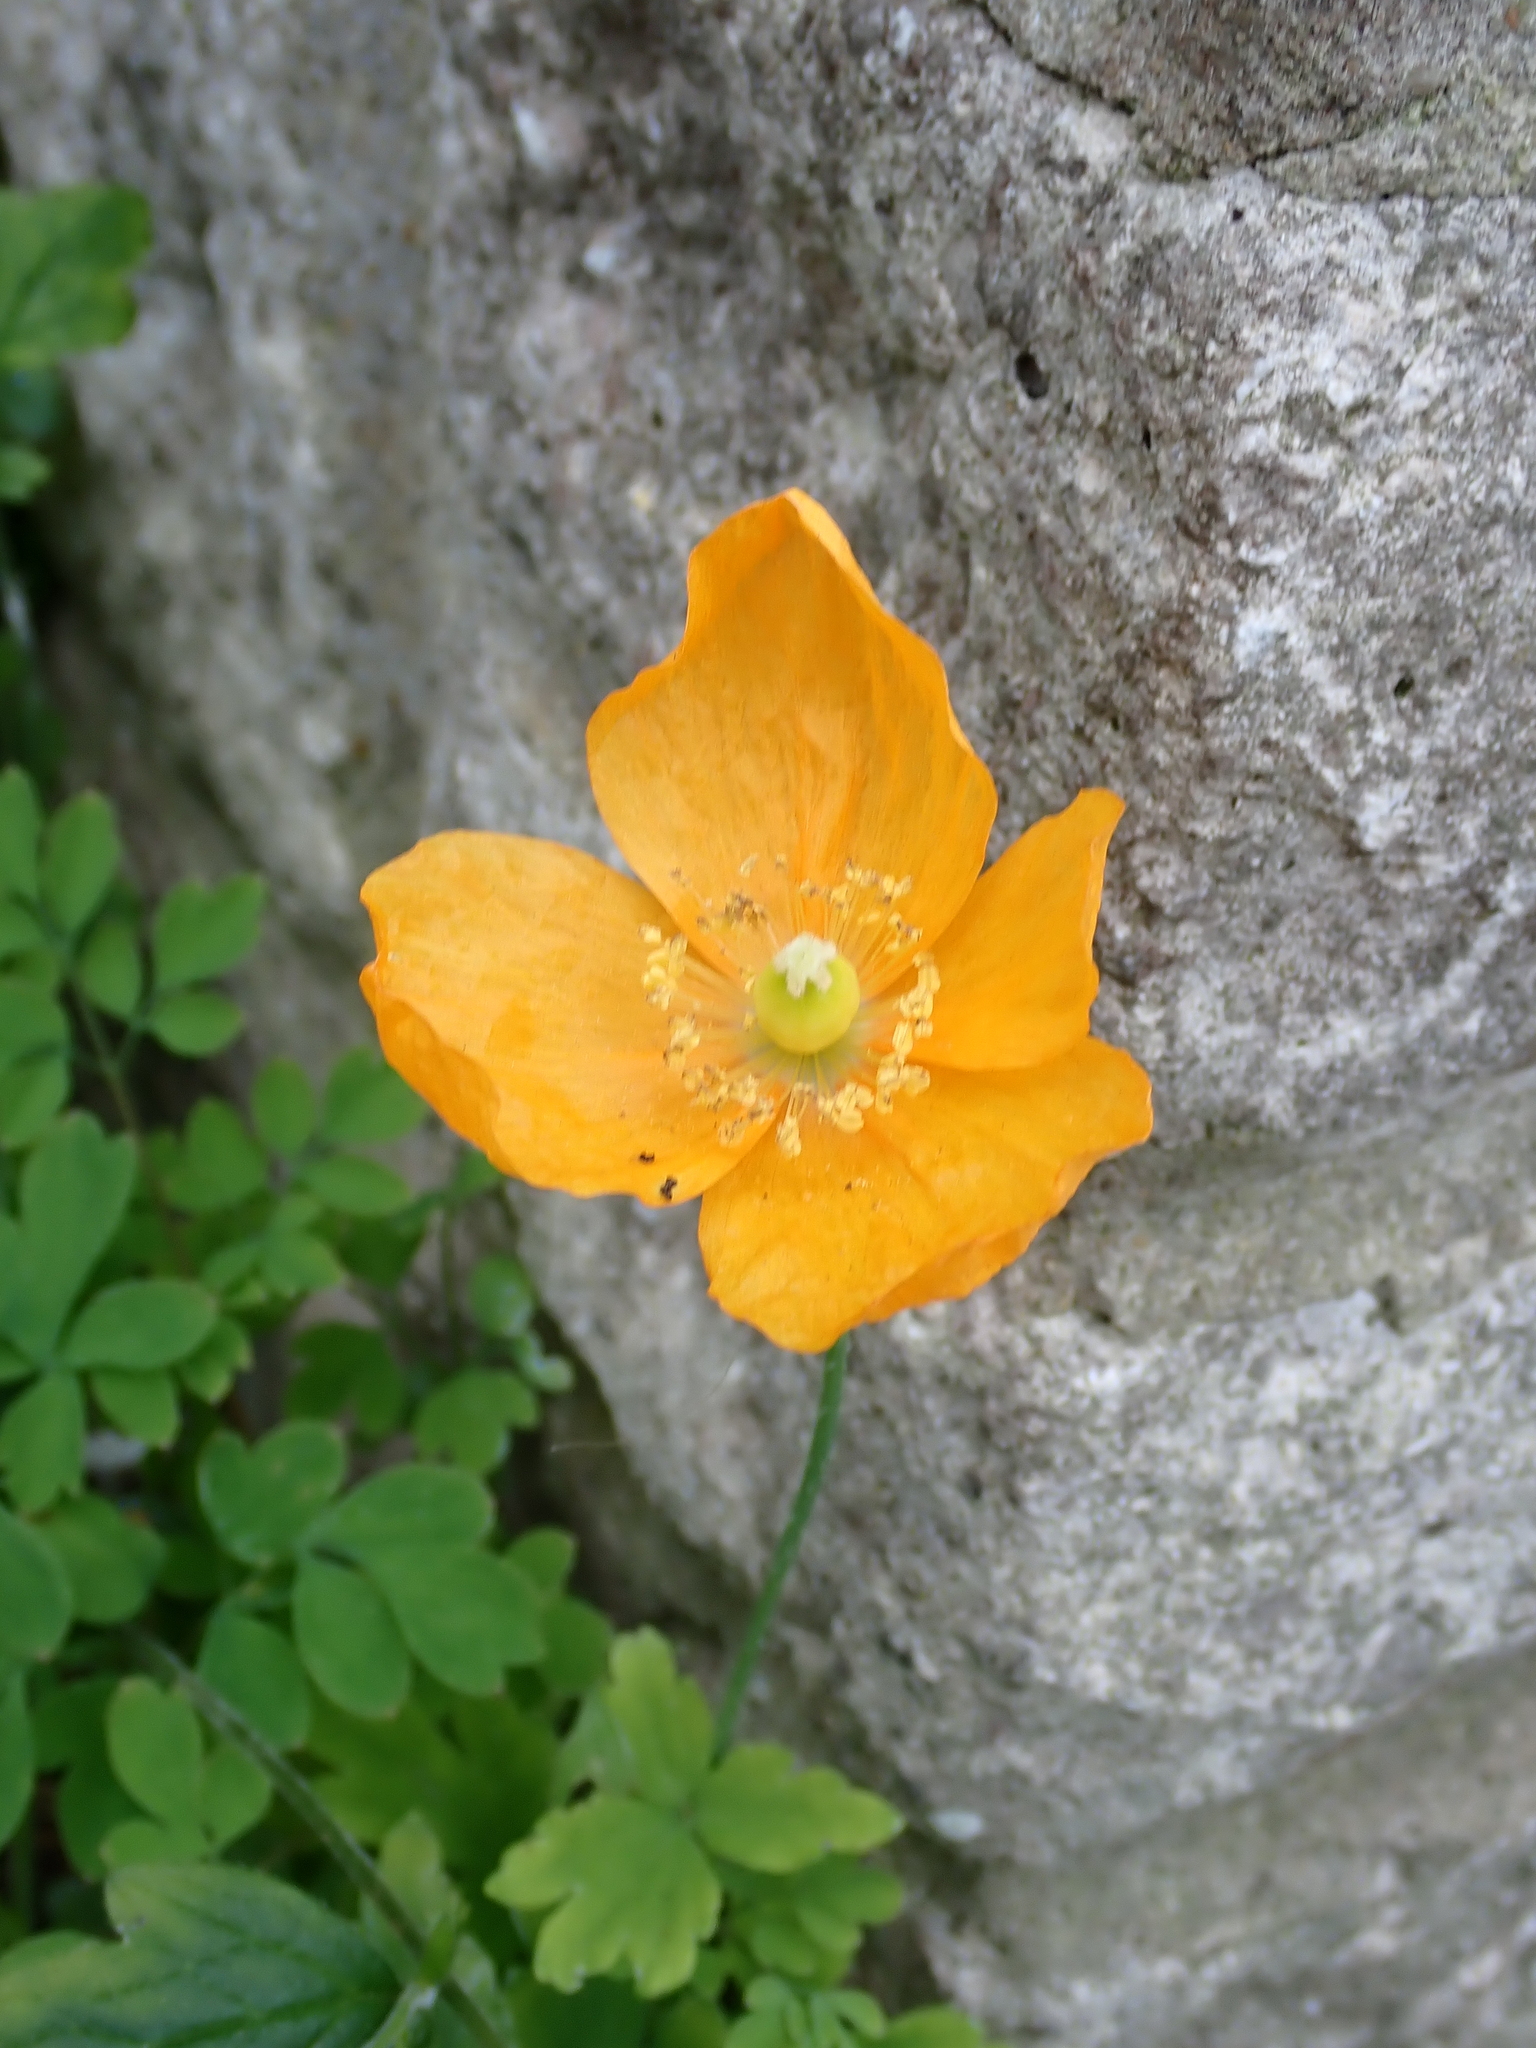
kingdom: Plantae
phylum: Tracheophyta
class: Magnoliopsida
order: Ranunculales
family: Papaveraceae
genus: Papaver
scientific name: Papaver cambricum
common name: Poppy
